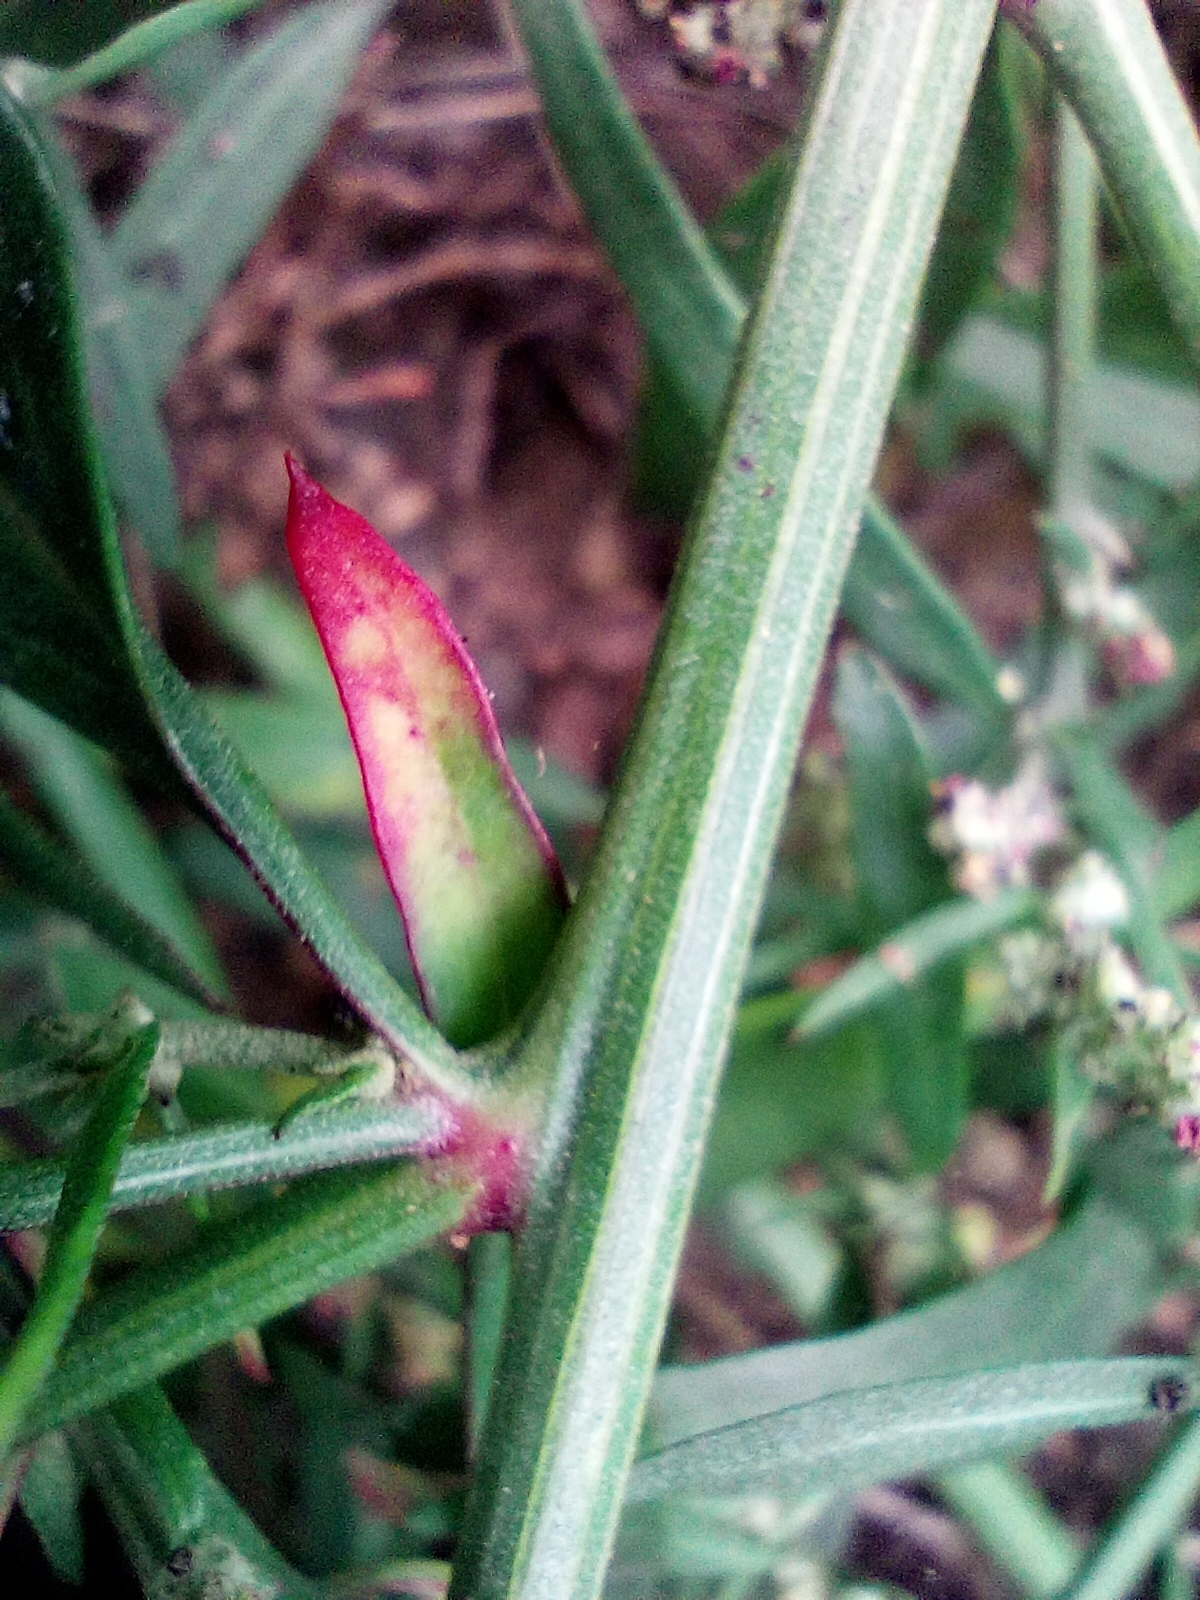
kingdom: Plantae
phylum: Tracheophyta
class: Magnoliopsida
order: Caryophyllales
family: Amaranthaceae
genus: Atriplex
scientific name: Atriplex patula
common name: Common orache
